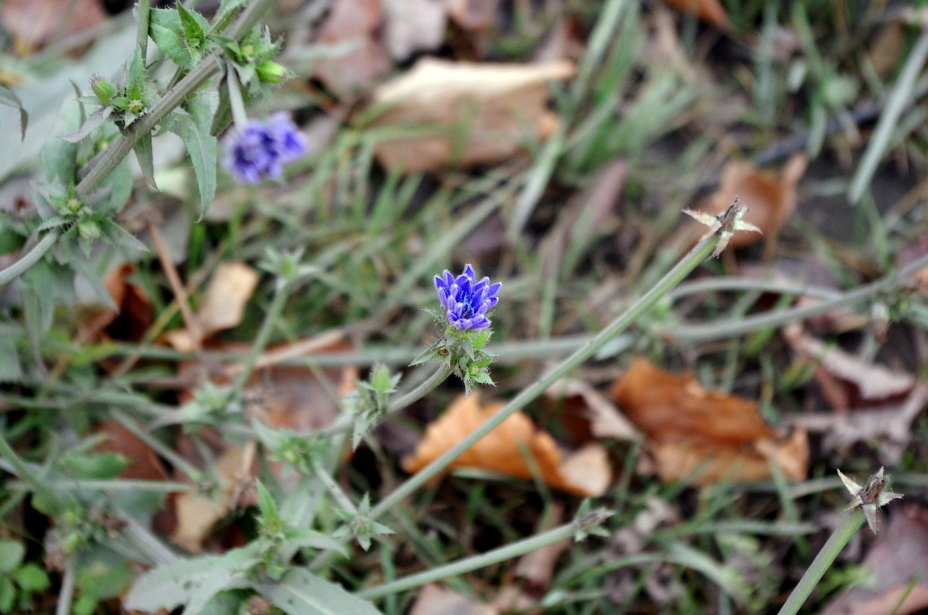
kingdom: Plantae
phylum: Tracheophyta
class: Magnoliopsida
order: Asterales
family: Asteraceae
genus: Cichorium
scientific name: Cichorium intybus
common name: Chicory
